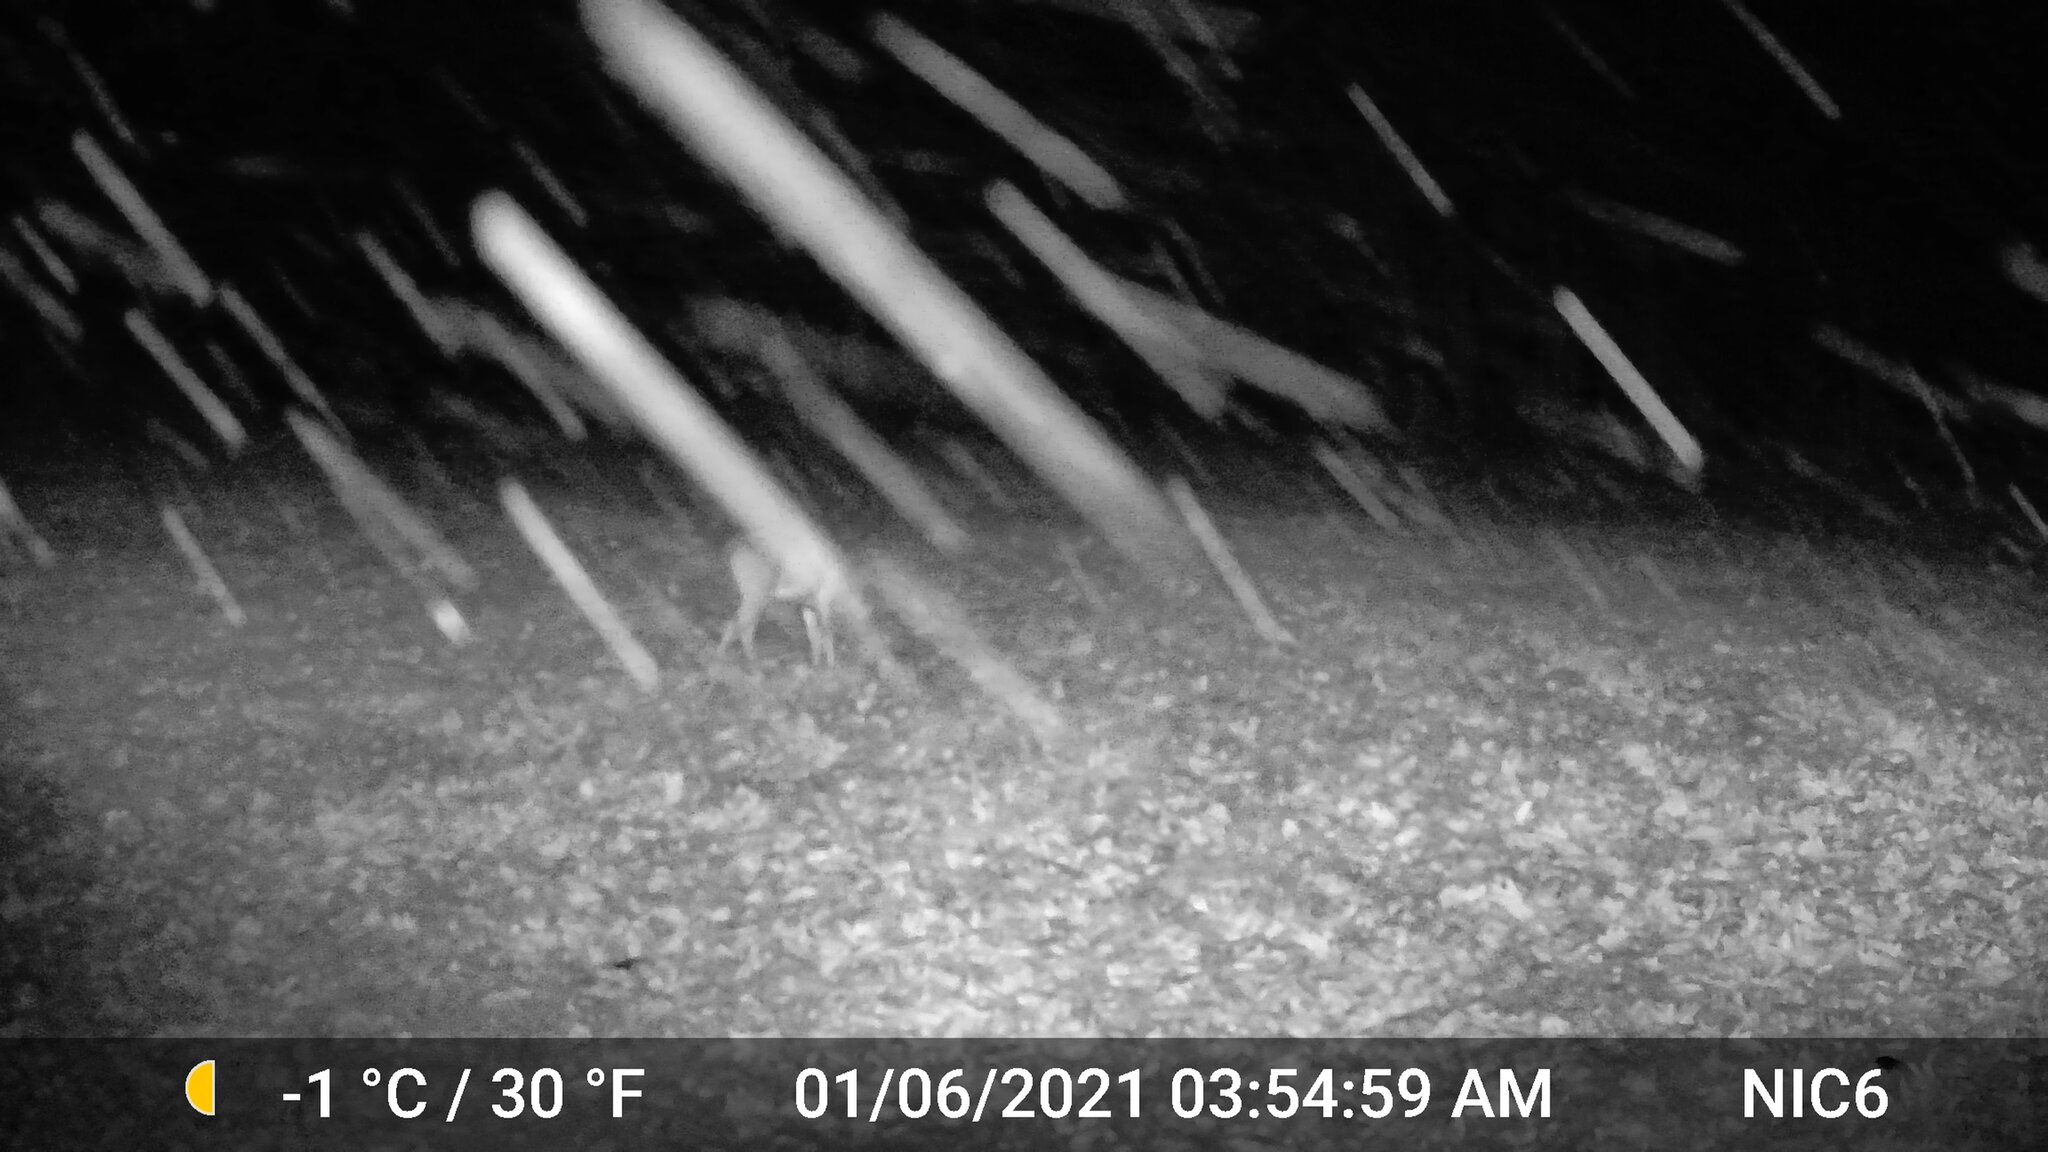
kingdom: Animalia
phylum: Chordata
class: Mammalia
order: Artiodactyla
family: Cervidae
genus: Odocoileus
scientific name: Odocoileus virginianus
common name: White-tailed deer
